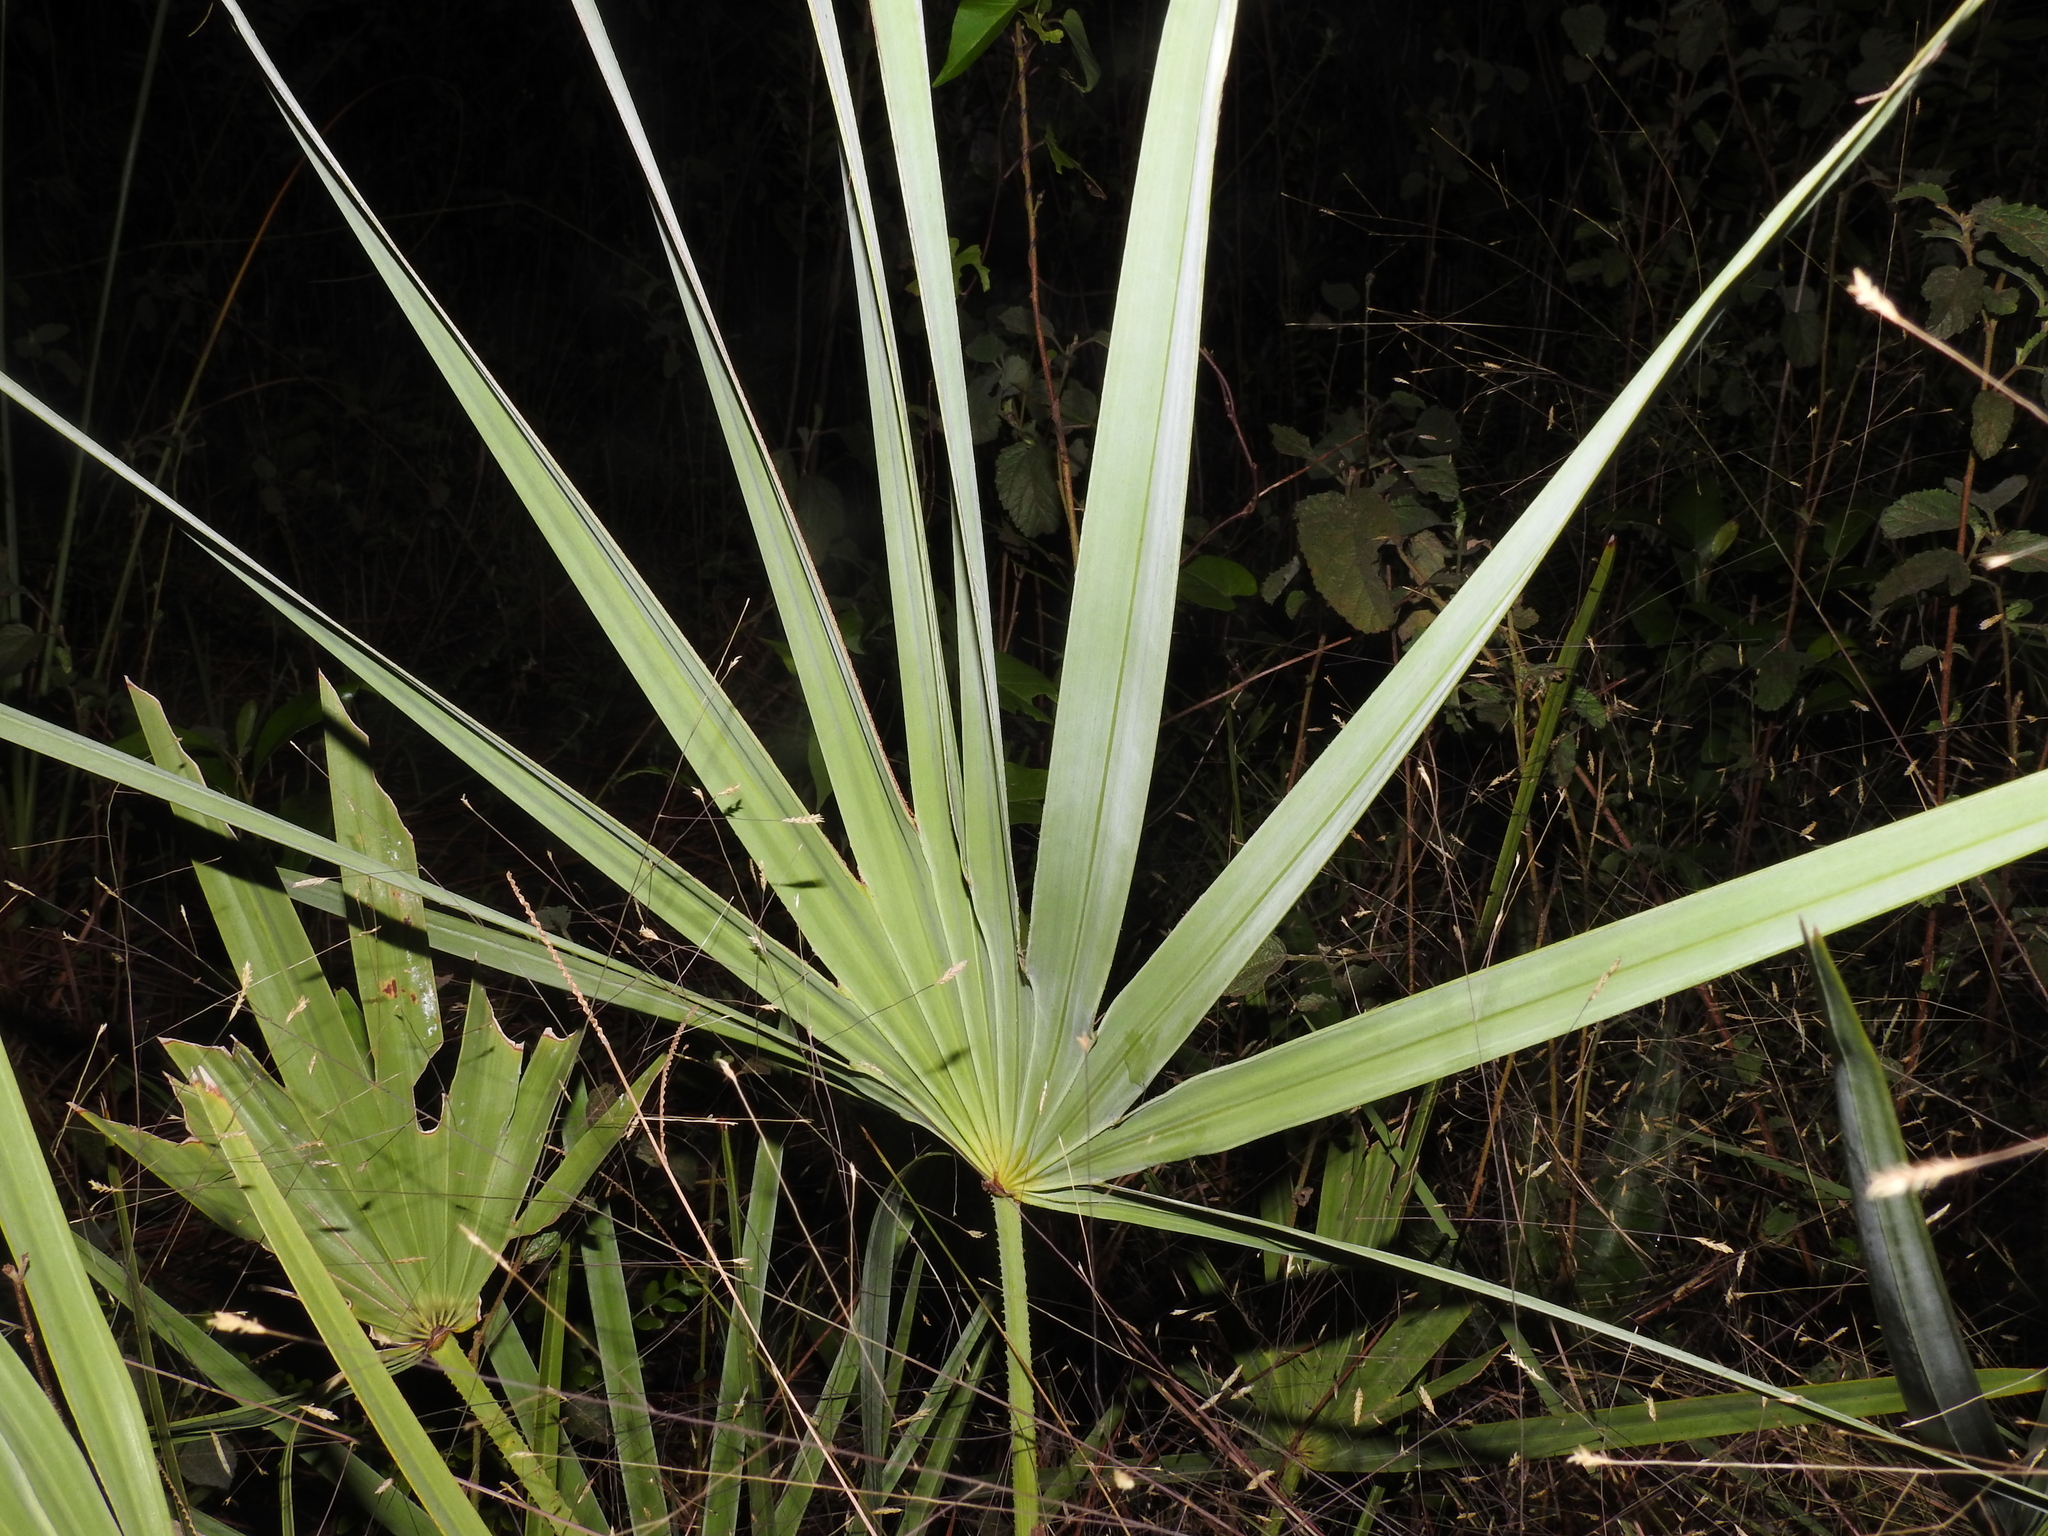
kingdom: Plantae
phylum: Tracheophyta
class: Liliopsida
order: Arecales
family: Arecaceae
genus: Serenoa
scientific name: Serenoa repens
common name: Saw-palmetto
